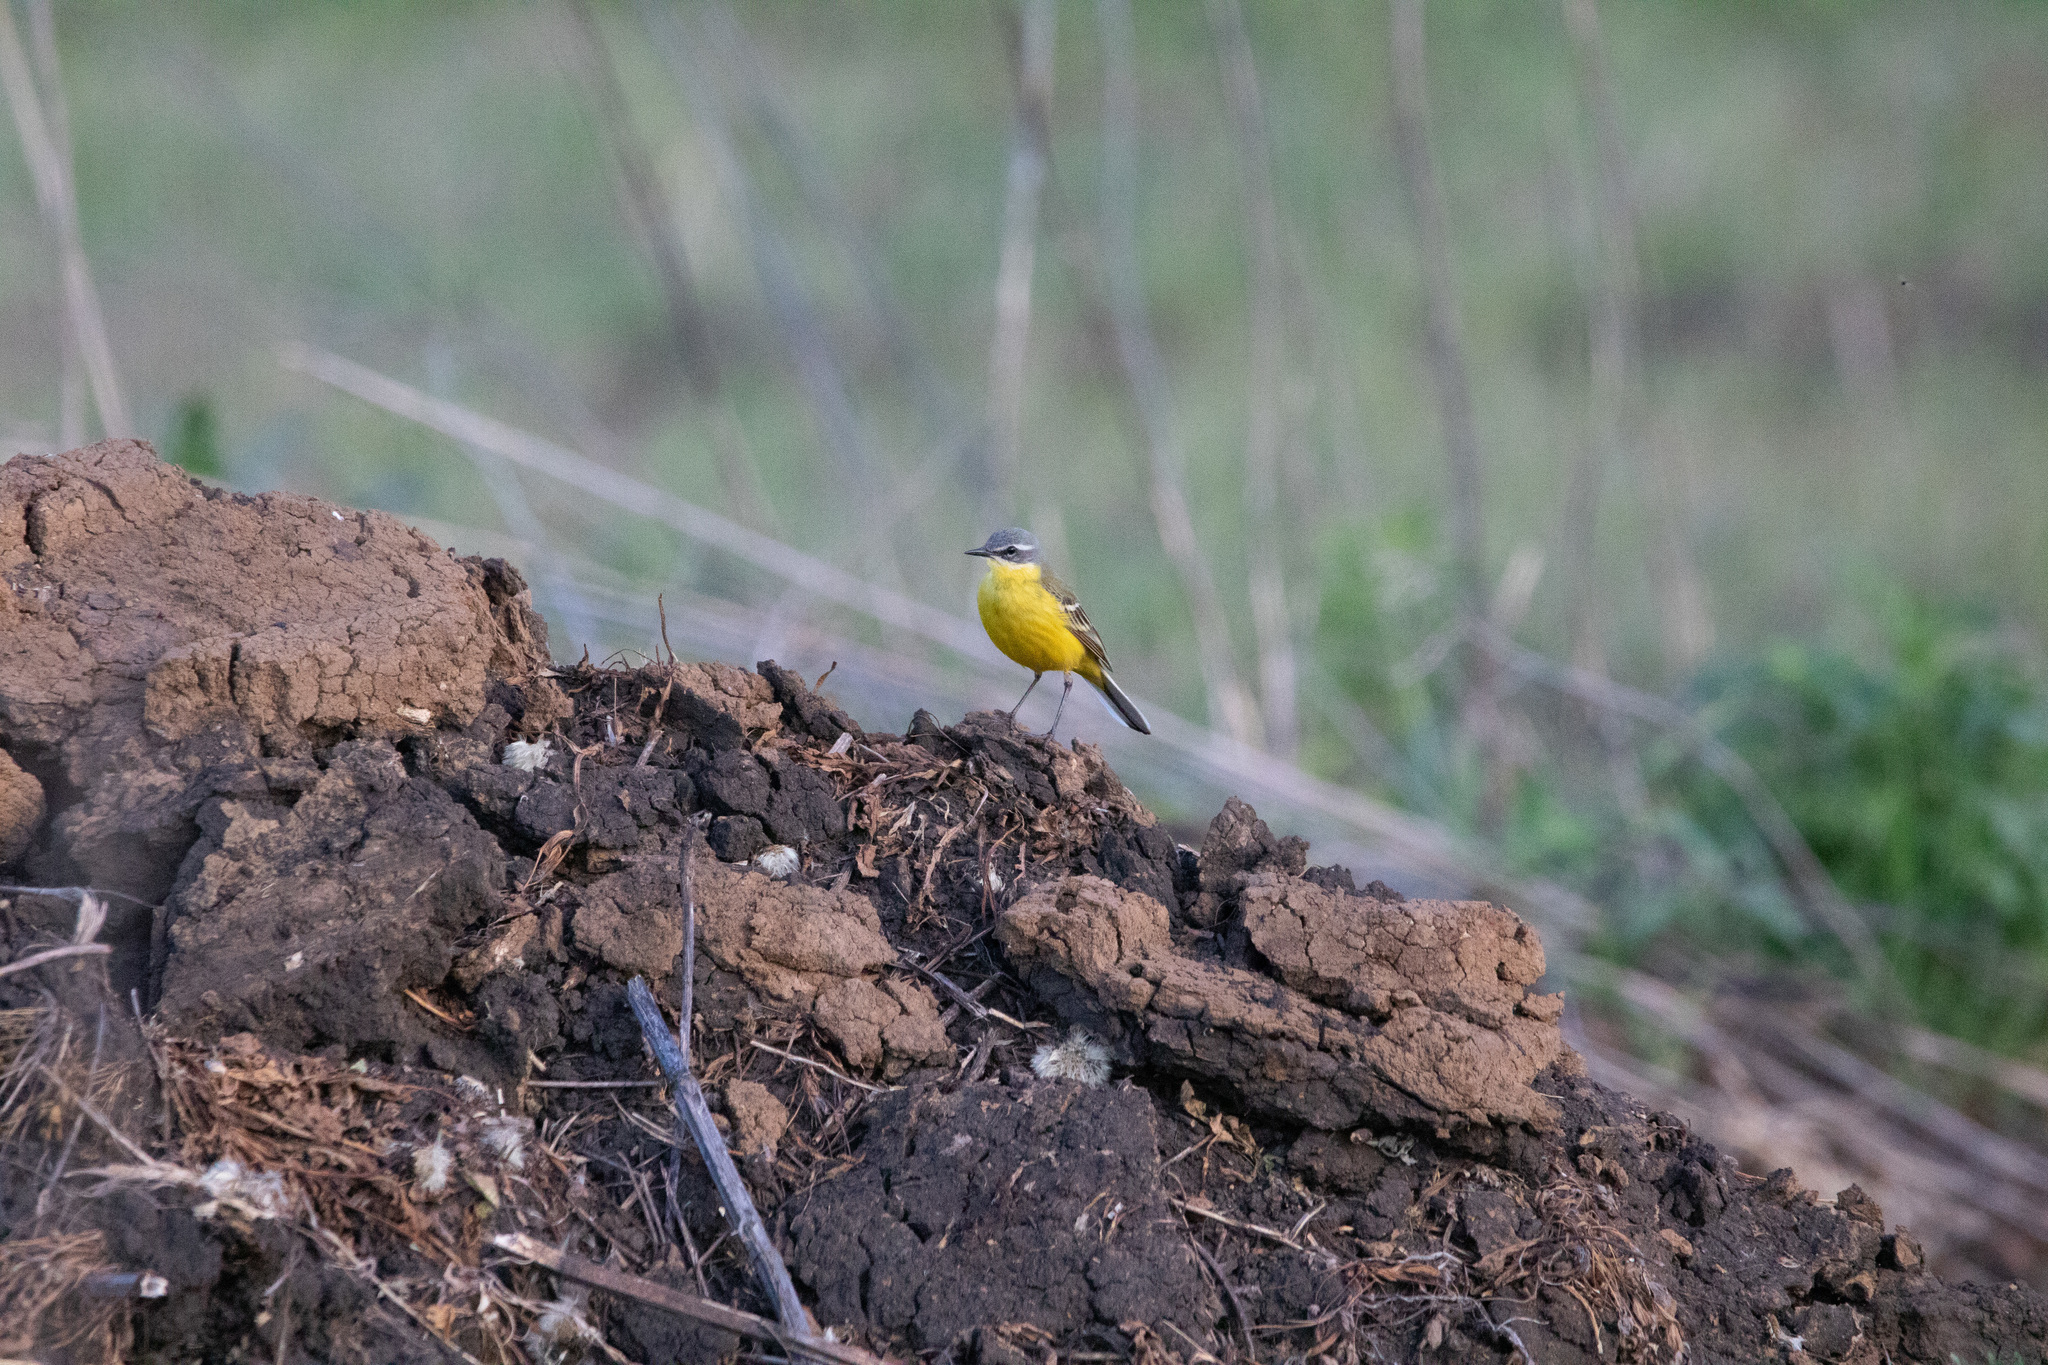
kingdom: Animalia
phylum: Chordata
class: Aves
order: Passeriformes
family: Motacillidae
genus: Motacilla
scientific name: Motacilla flava
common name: Western yellow wagtail
